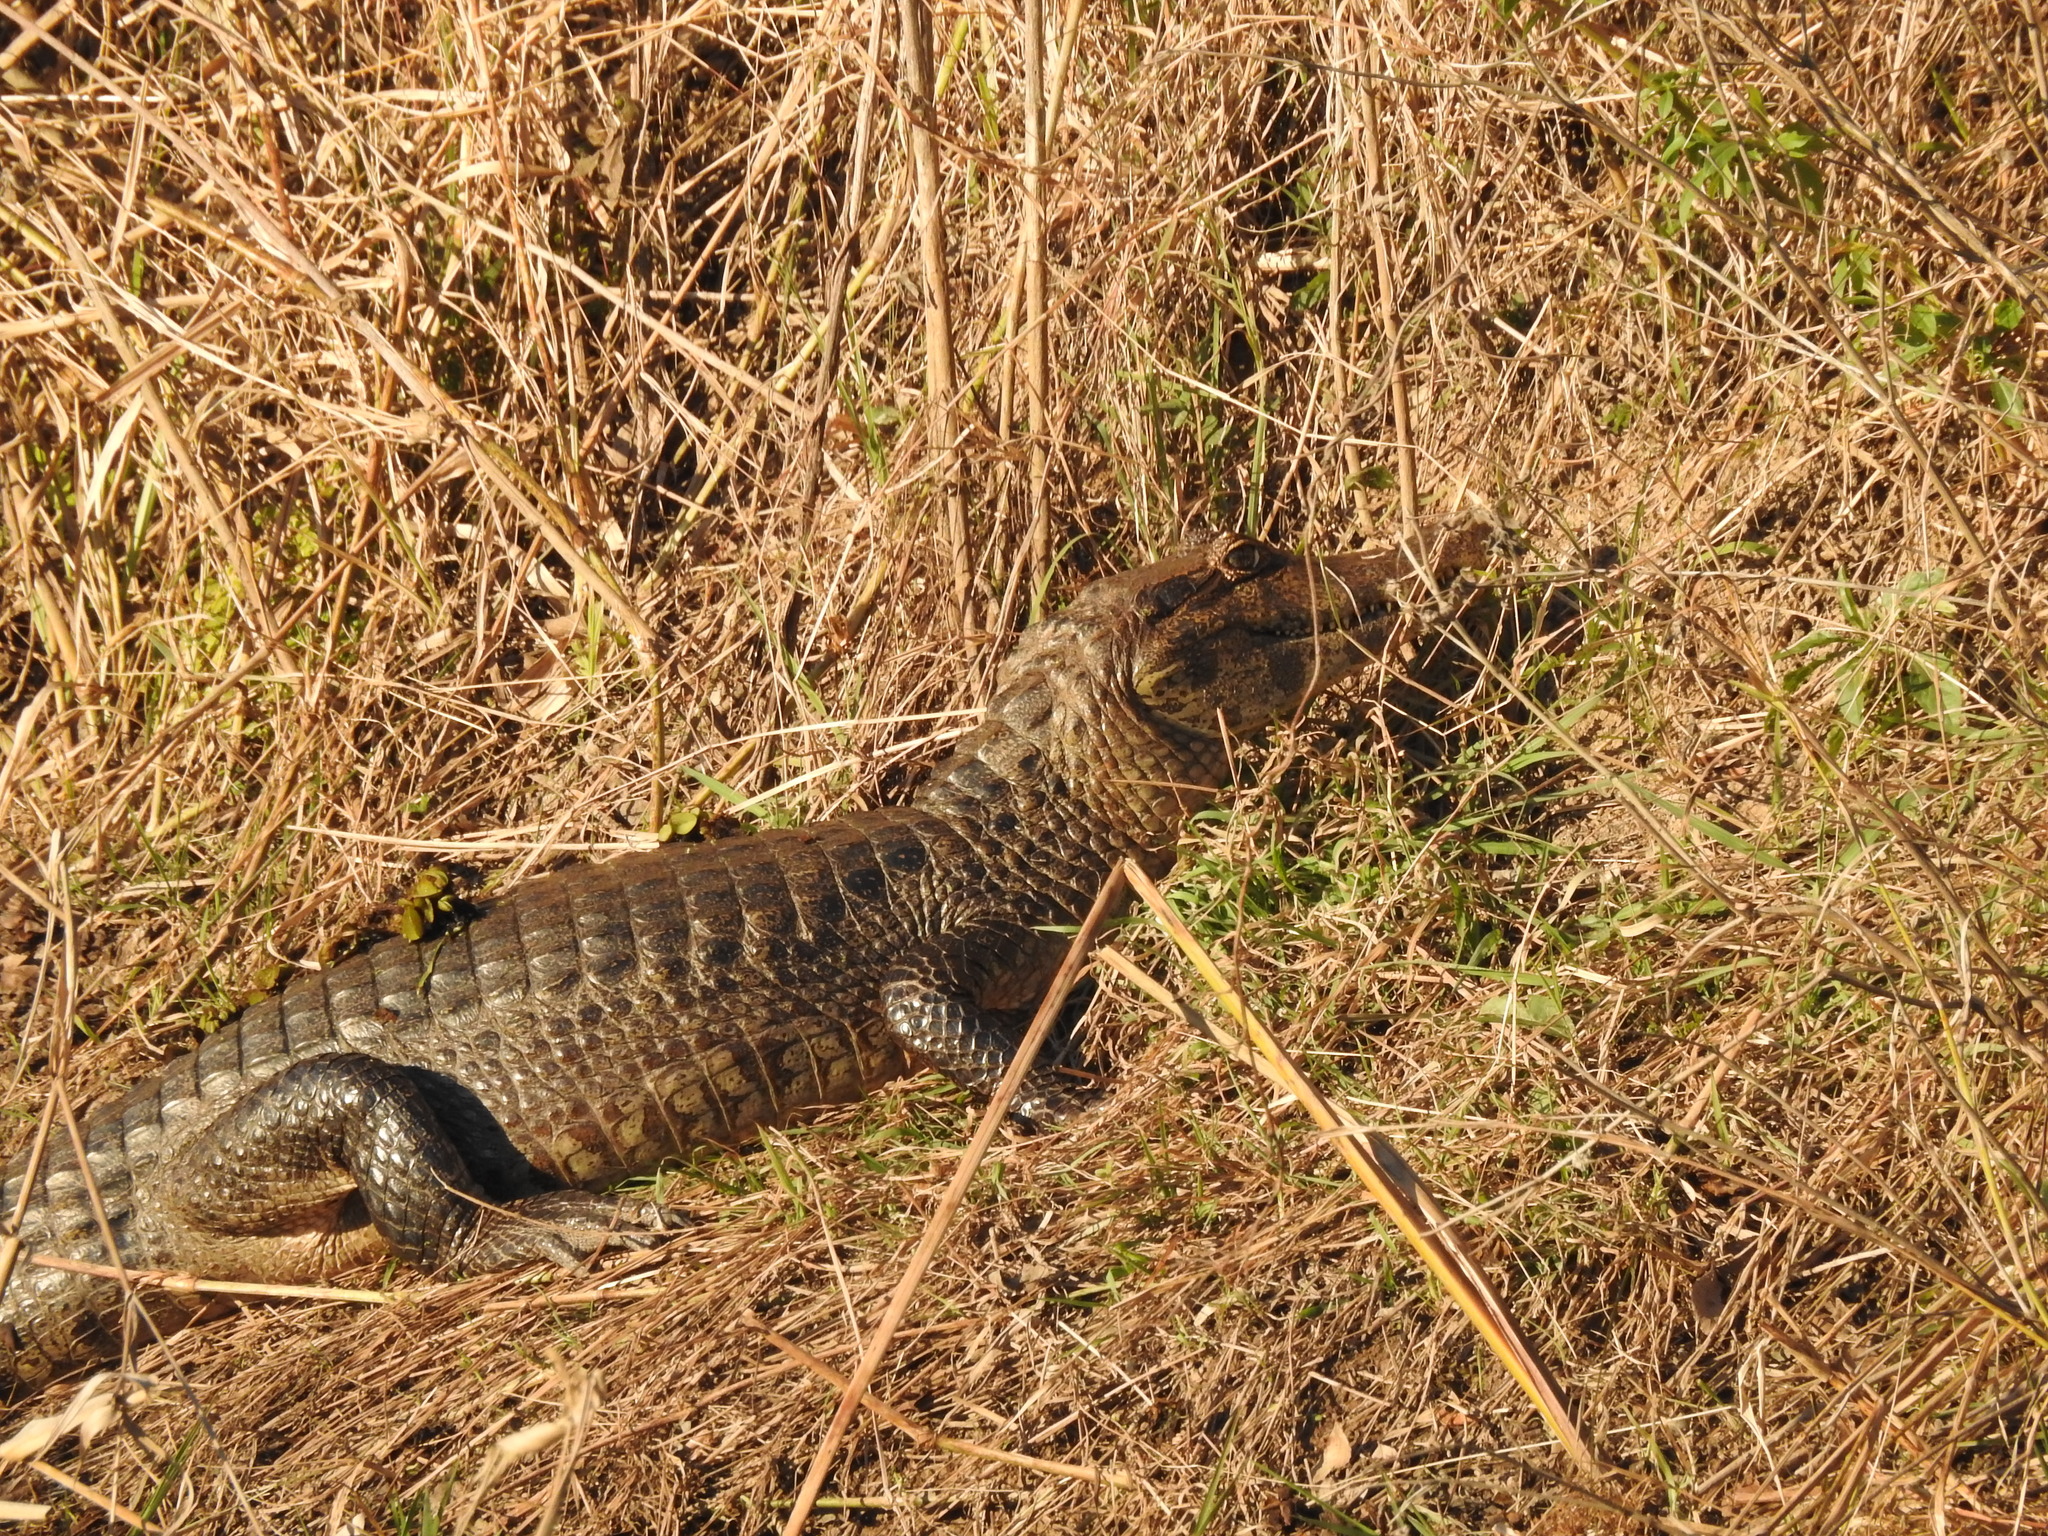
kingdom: Animalia
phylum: Chordata
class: Crocodylia
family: Alligatoridae
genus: Caiman
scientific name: Caiman yacare
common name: Yacare caiman
